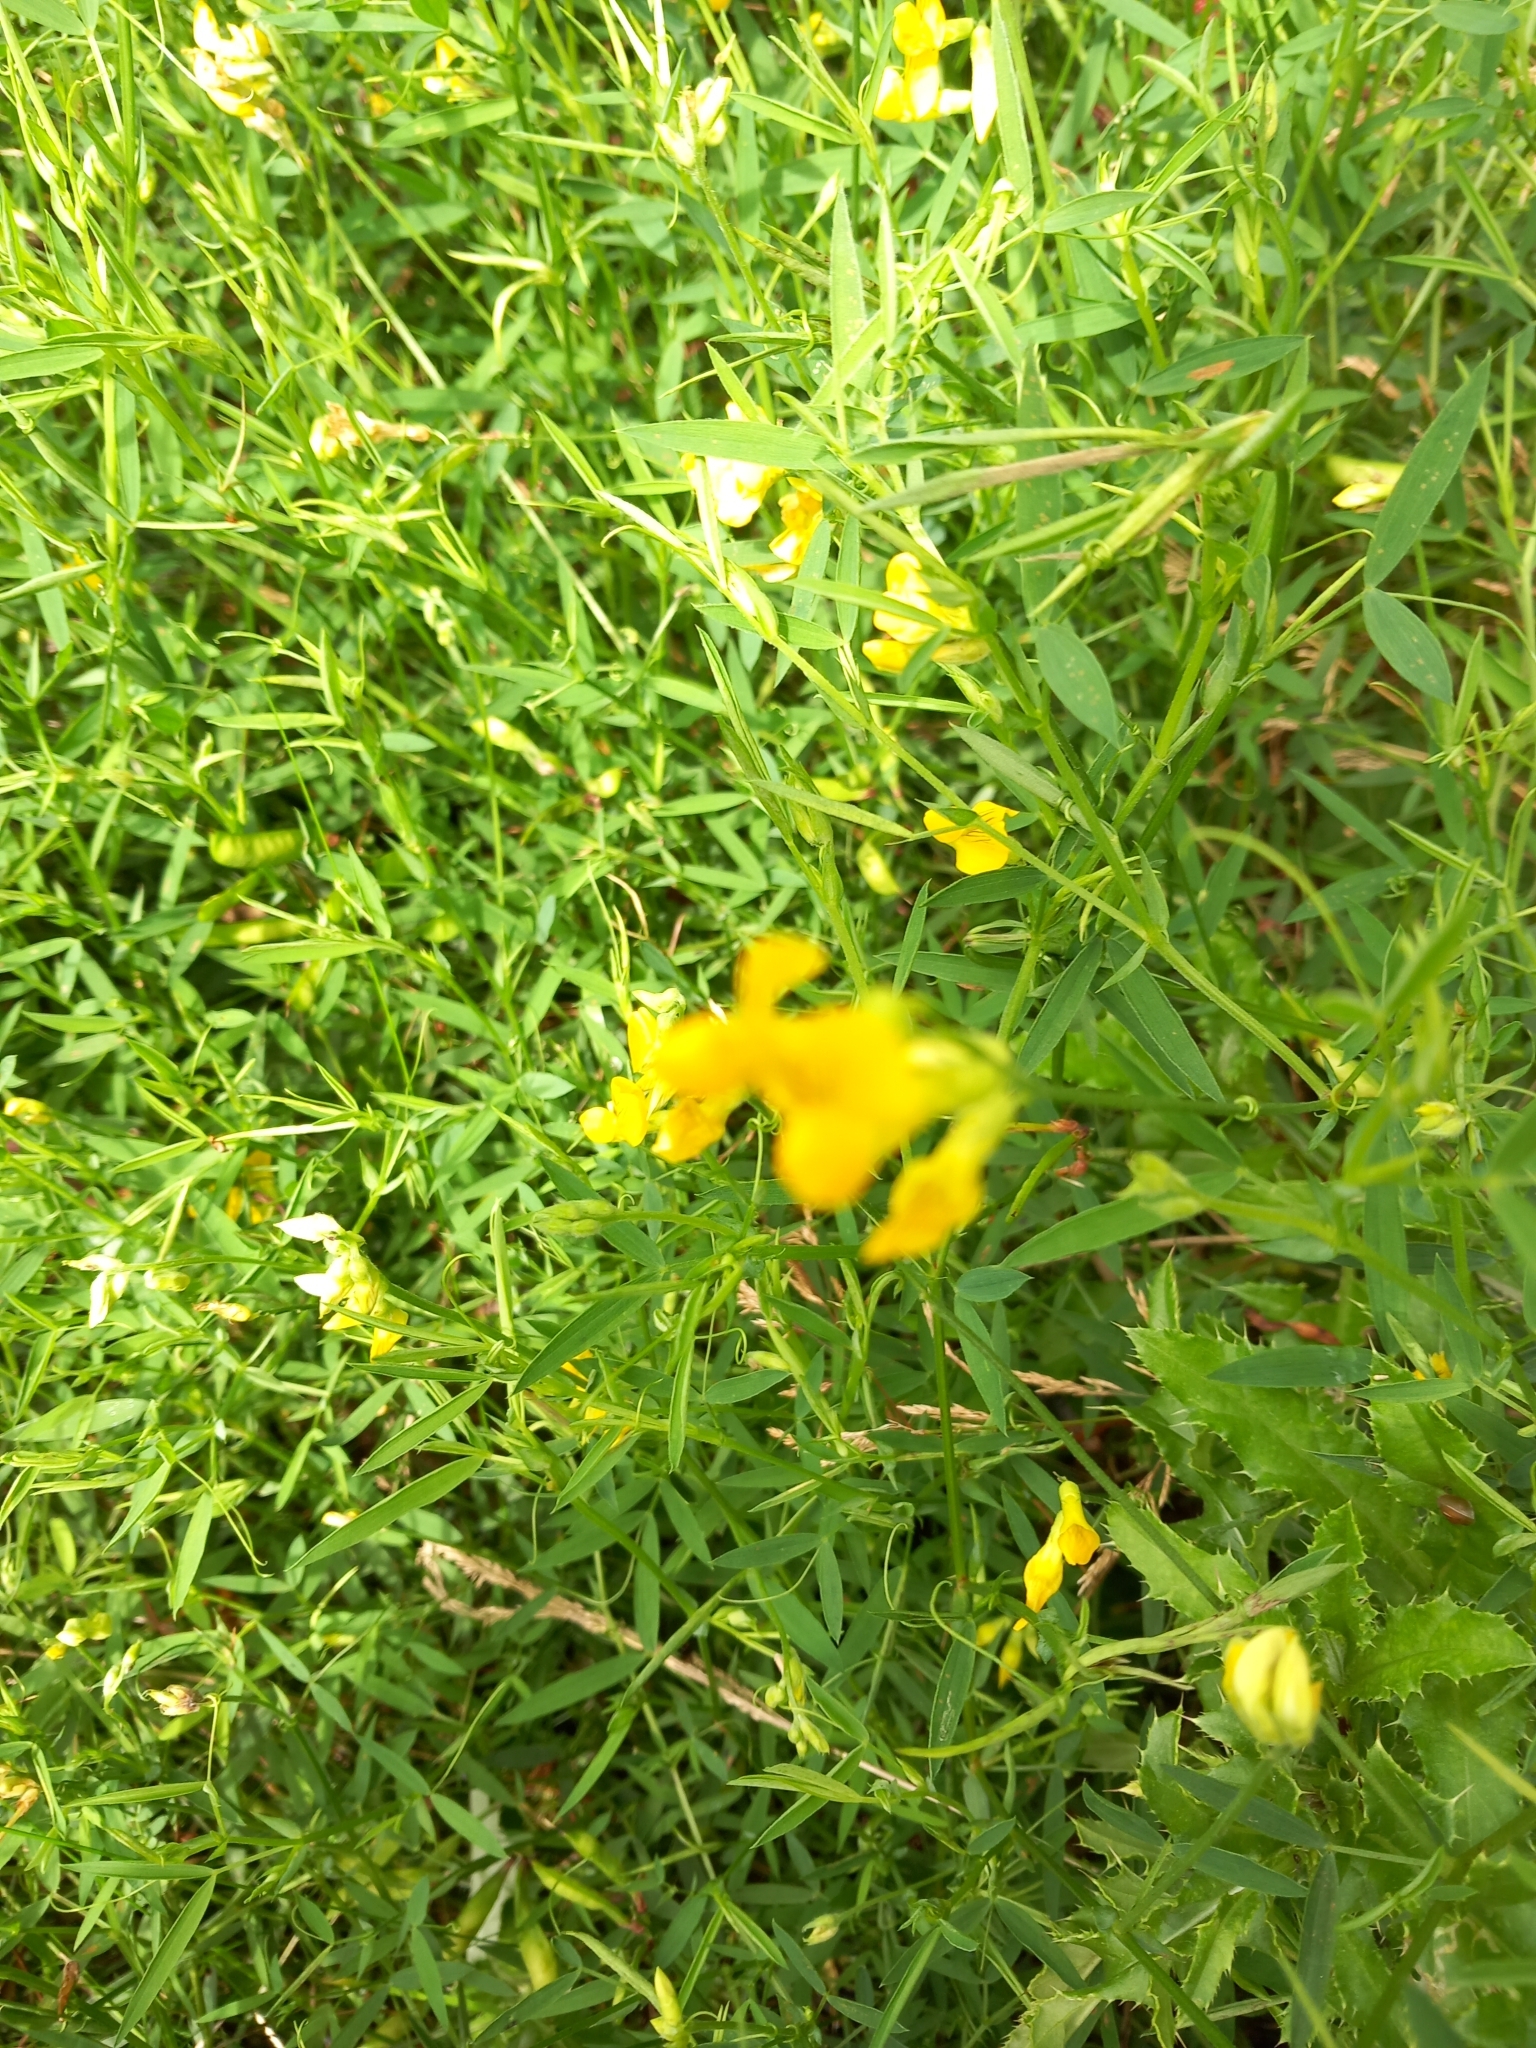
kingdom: Plantae
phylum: Tracheophyta
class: Magnoliopsida
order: Fabales
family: Fabaceae
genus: Lathyrus
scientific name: Lathyrus pratensis
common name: Meadow vetchling
